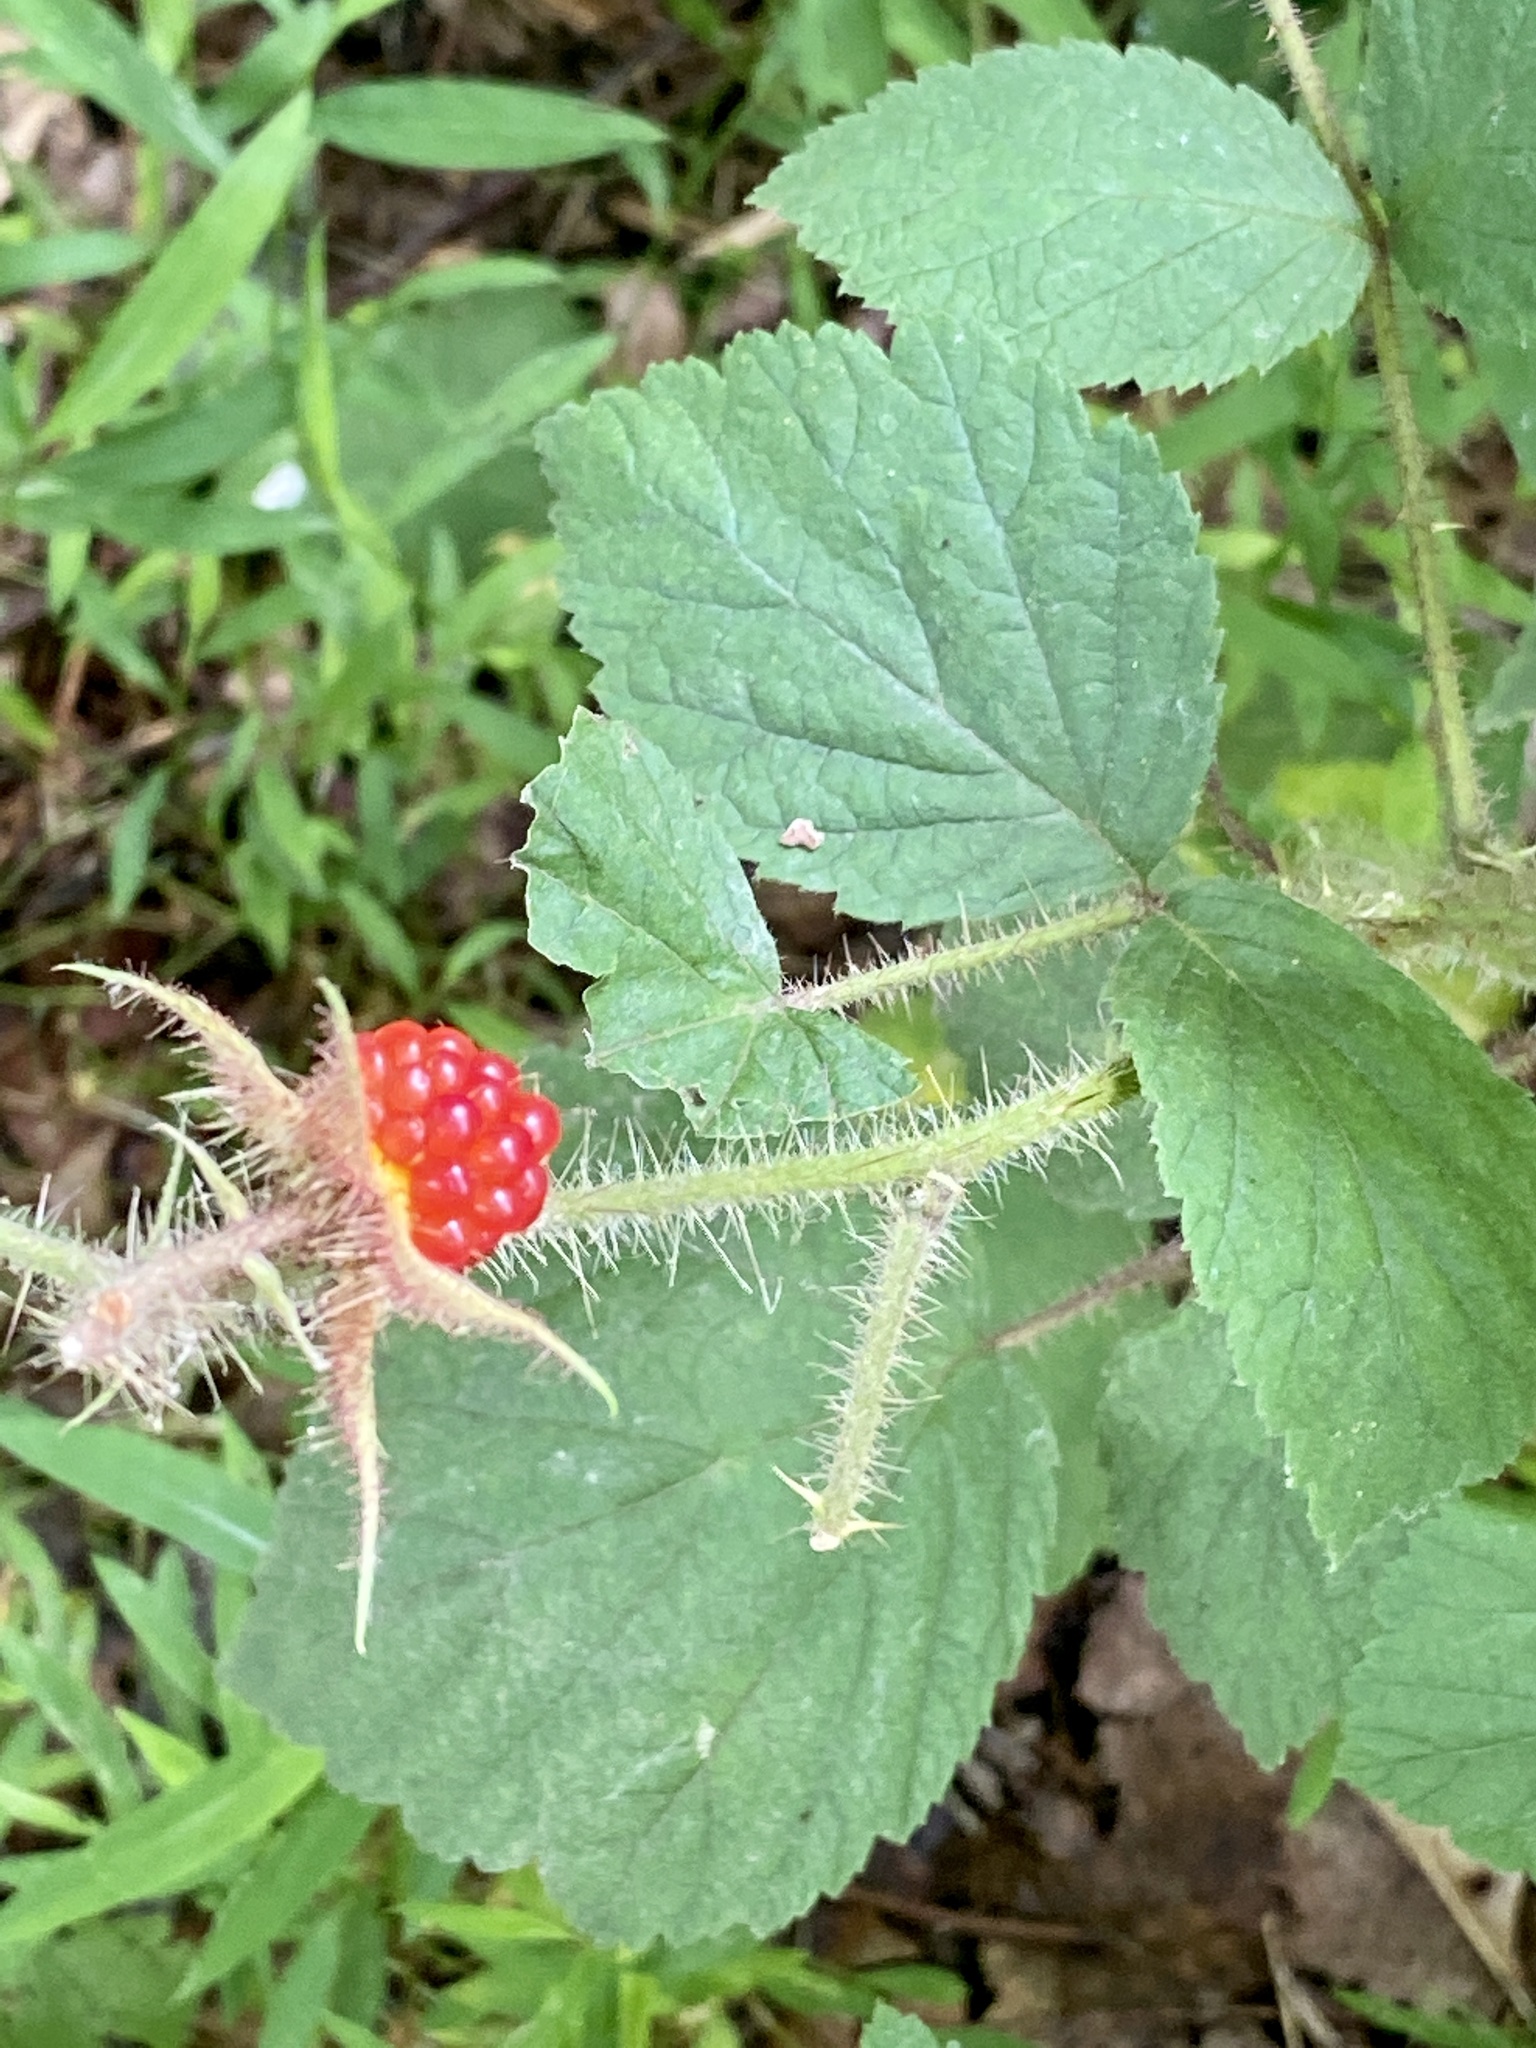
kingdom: Plantae
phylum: Tracheophyta
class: Magnoliopsida
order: Rosales
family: Rosaceae
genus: Rubus
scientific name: Rubus phoenicolasius
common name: Japanese wineberry
